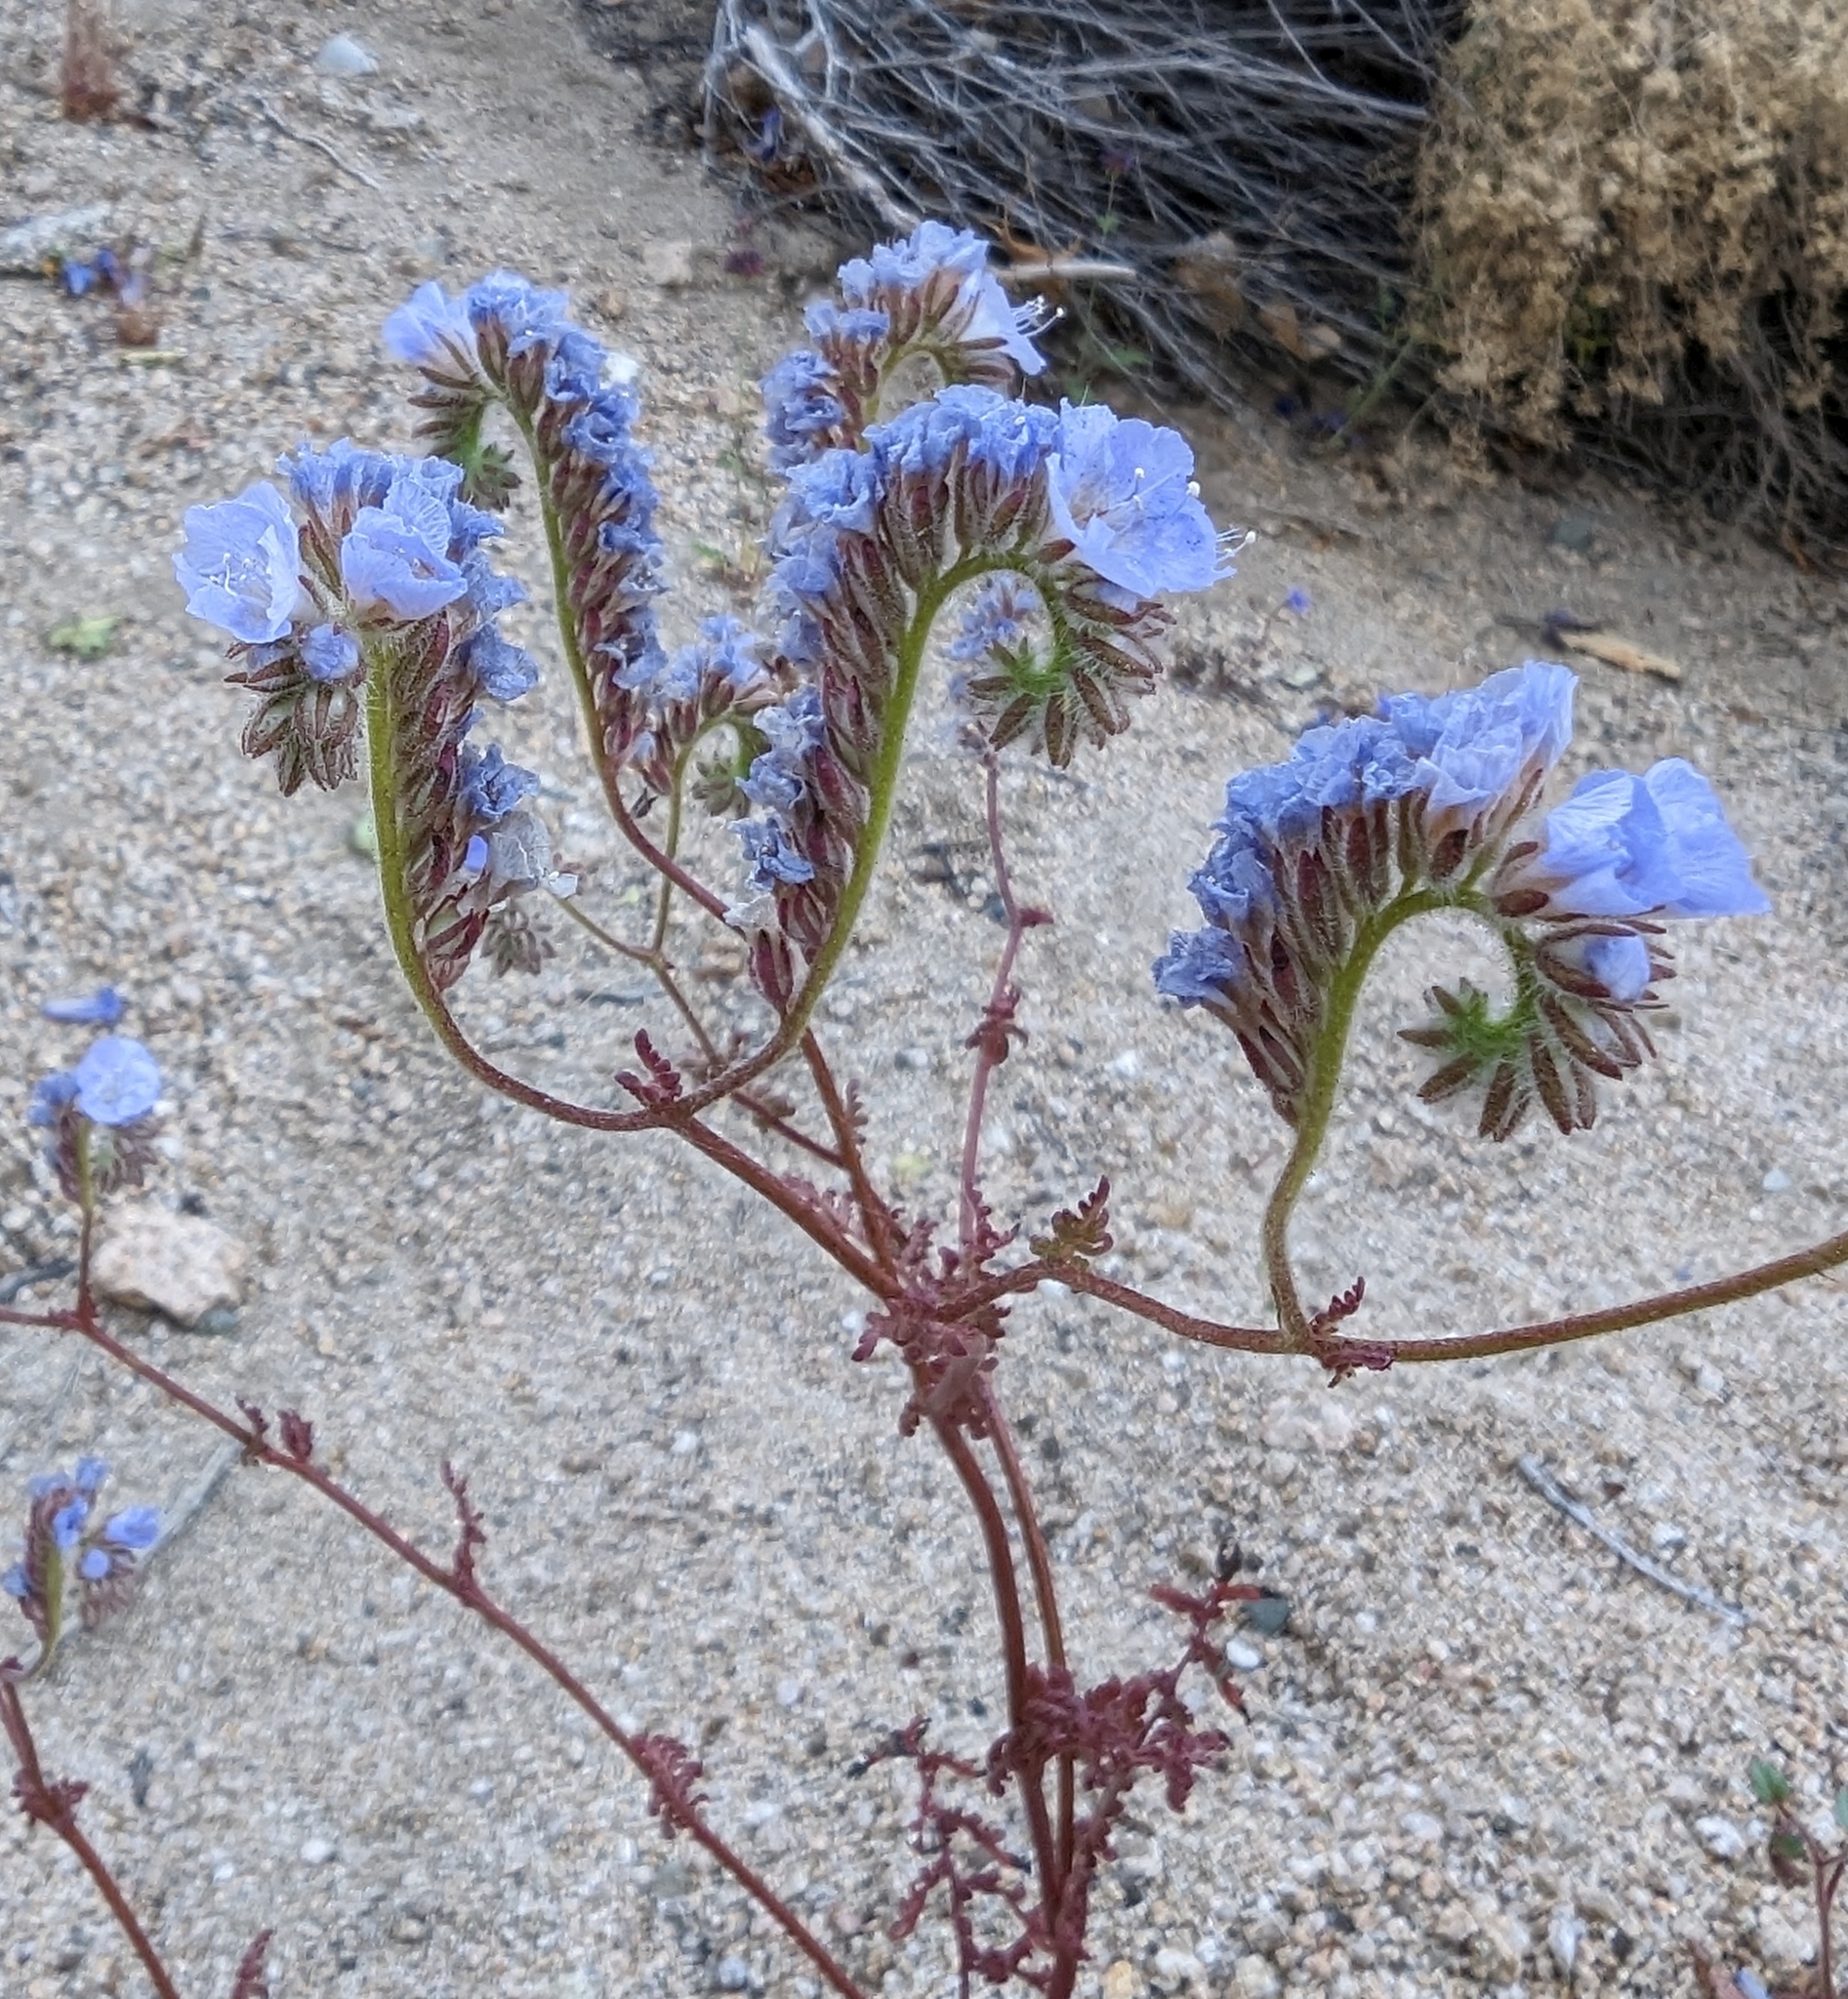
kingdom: Plantae
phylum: Tracheophyta
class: Magnoliopsida
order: Boraginales
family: Hydrophyllaceae
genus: Phacelia
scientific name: Phacelia distans
